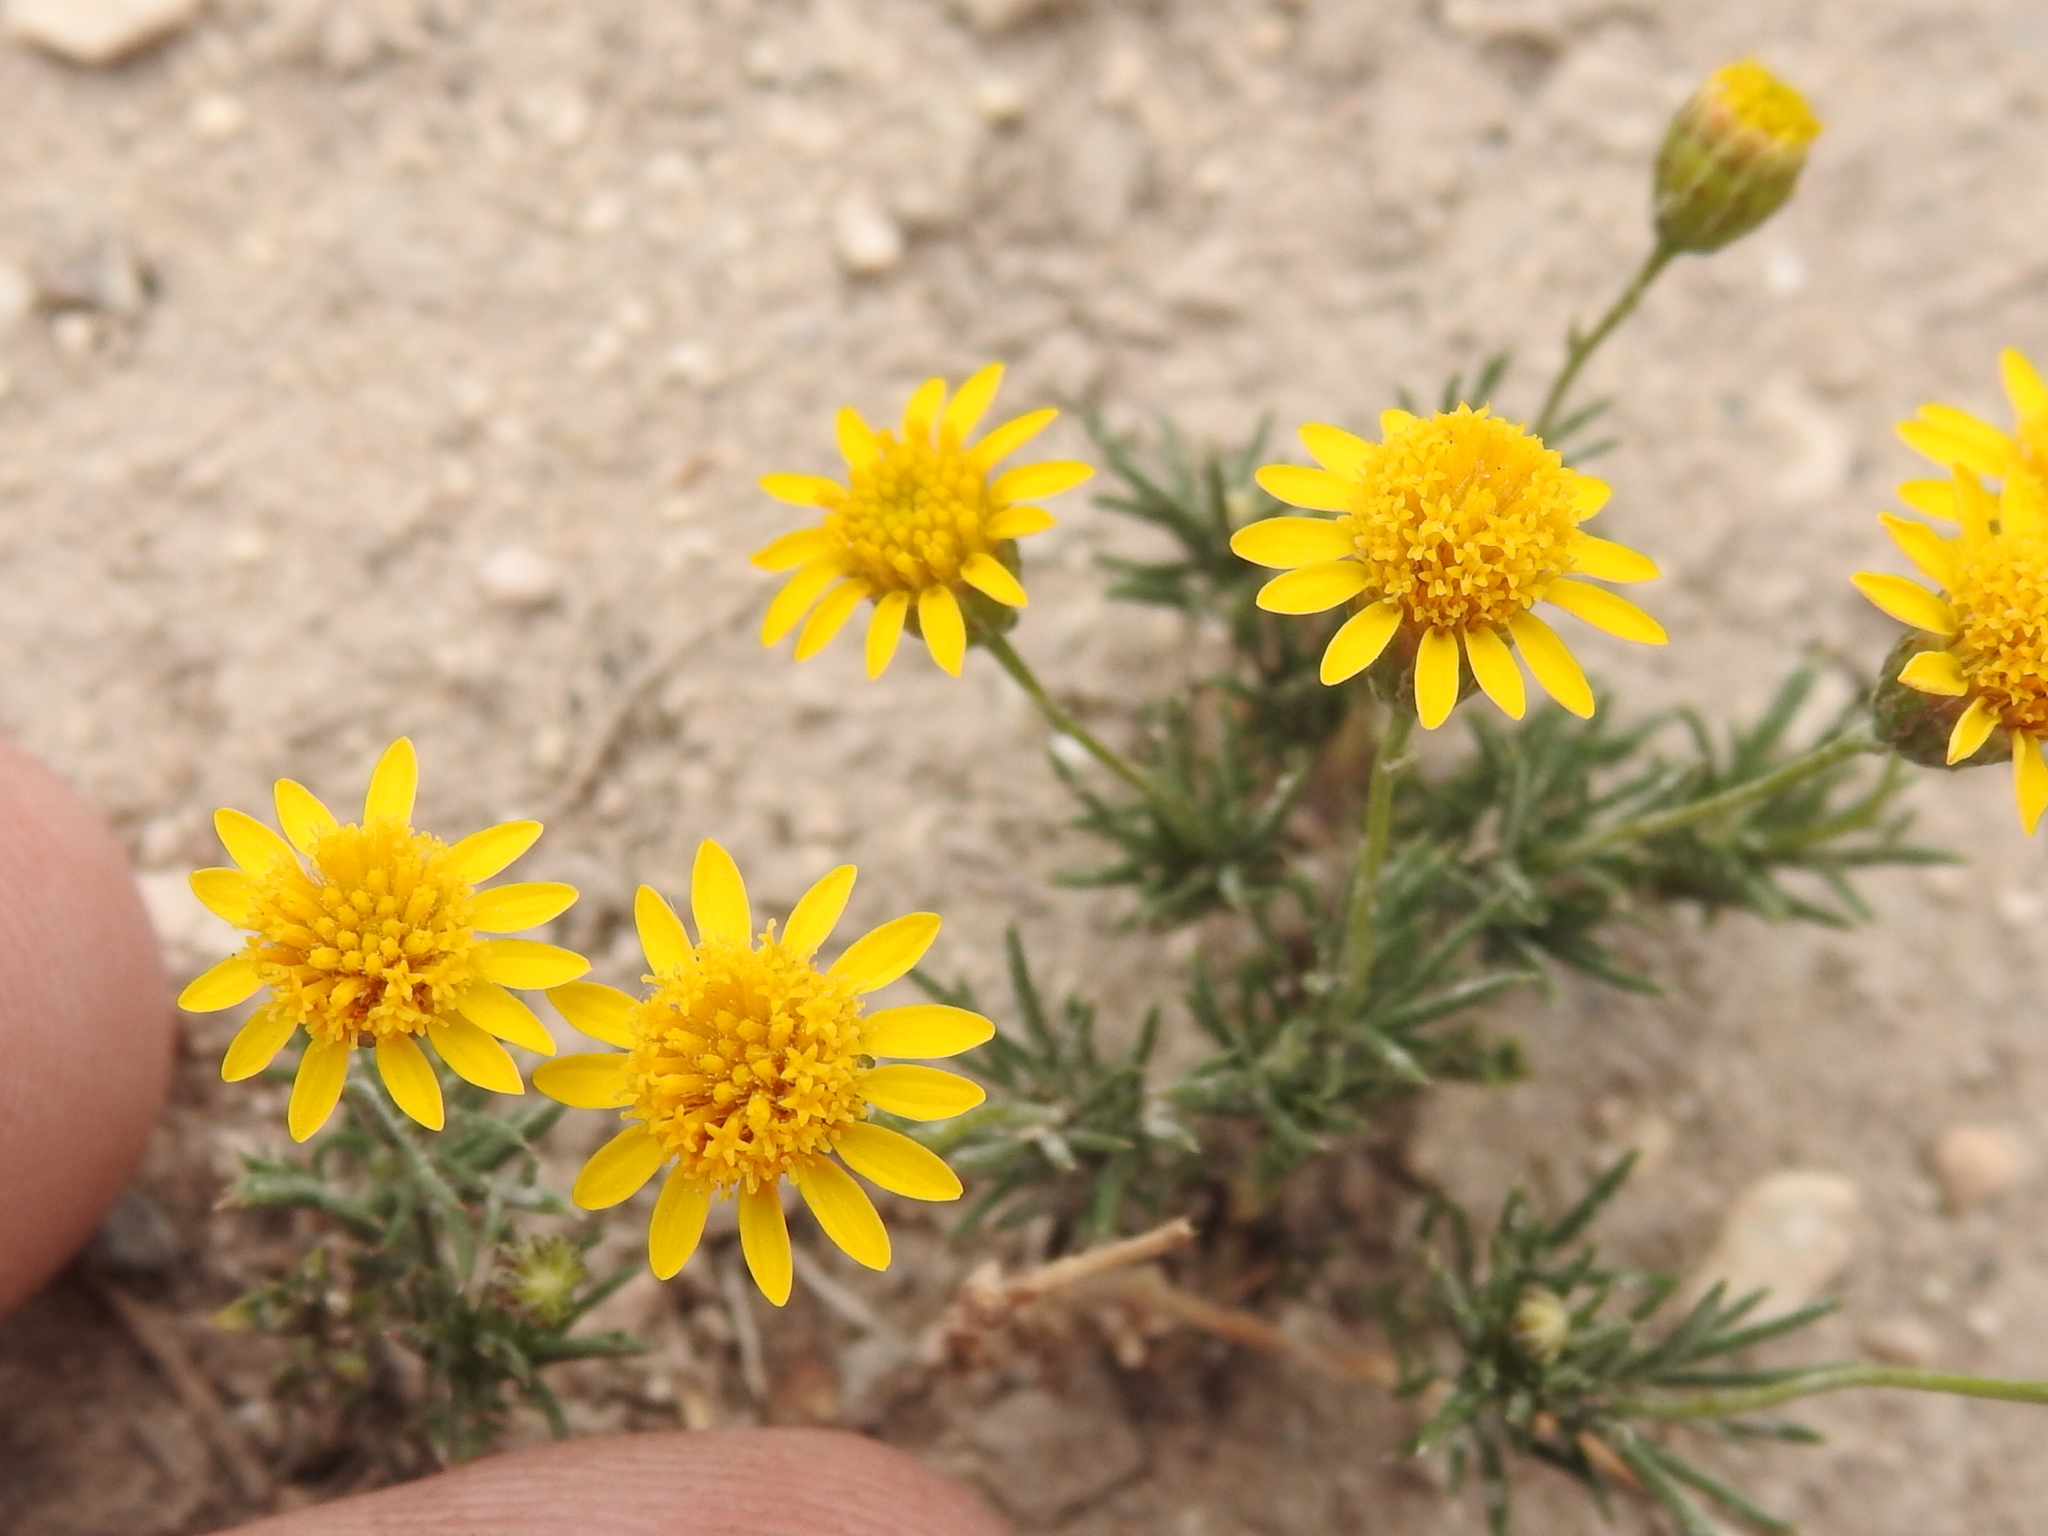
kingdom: Plantae
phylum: Tracheophyta
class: Magnoliopsida
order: Asterales
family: Asteraceae
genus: Thymophylla
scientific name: Thymophylla pentachaeta
